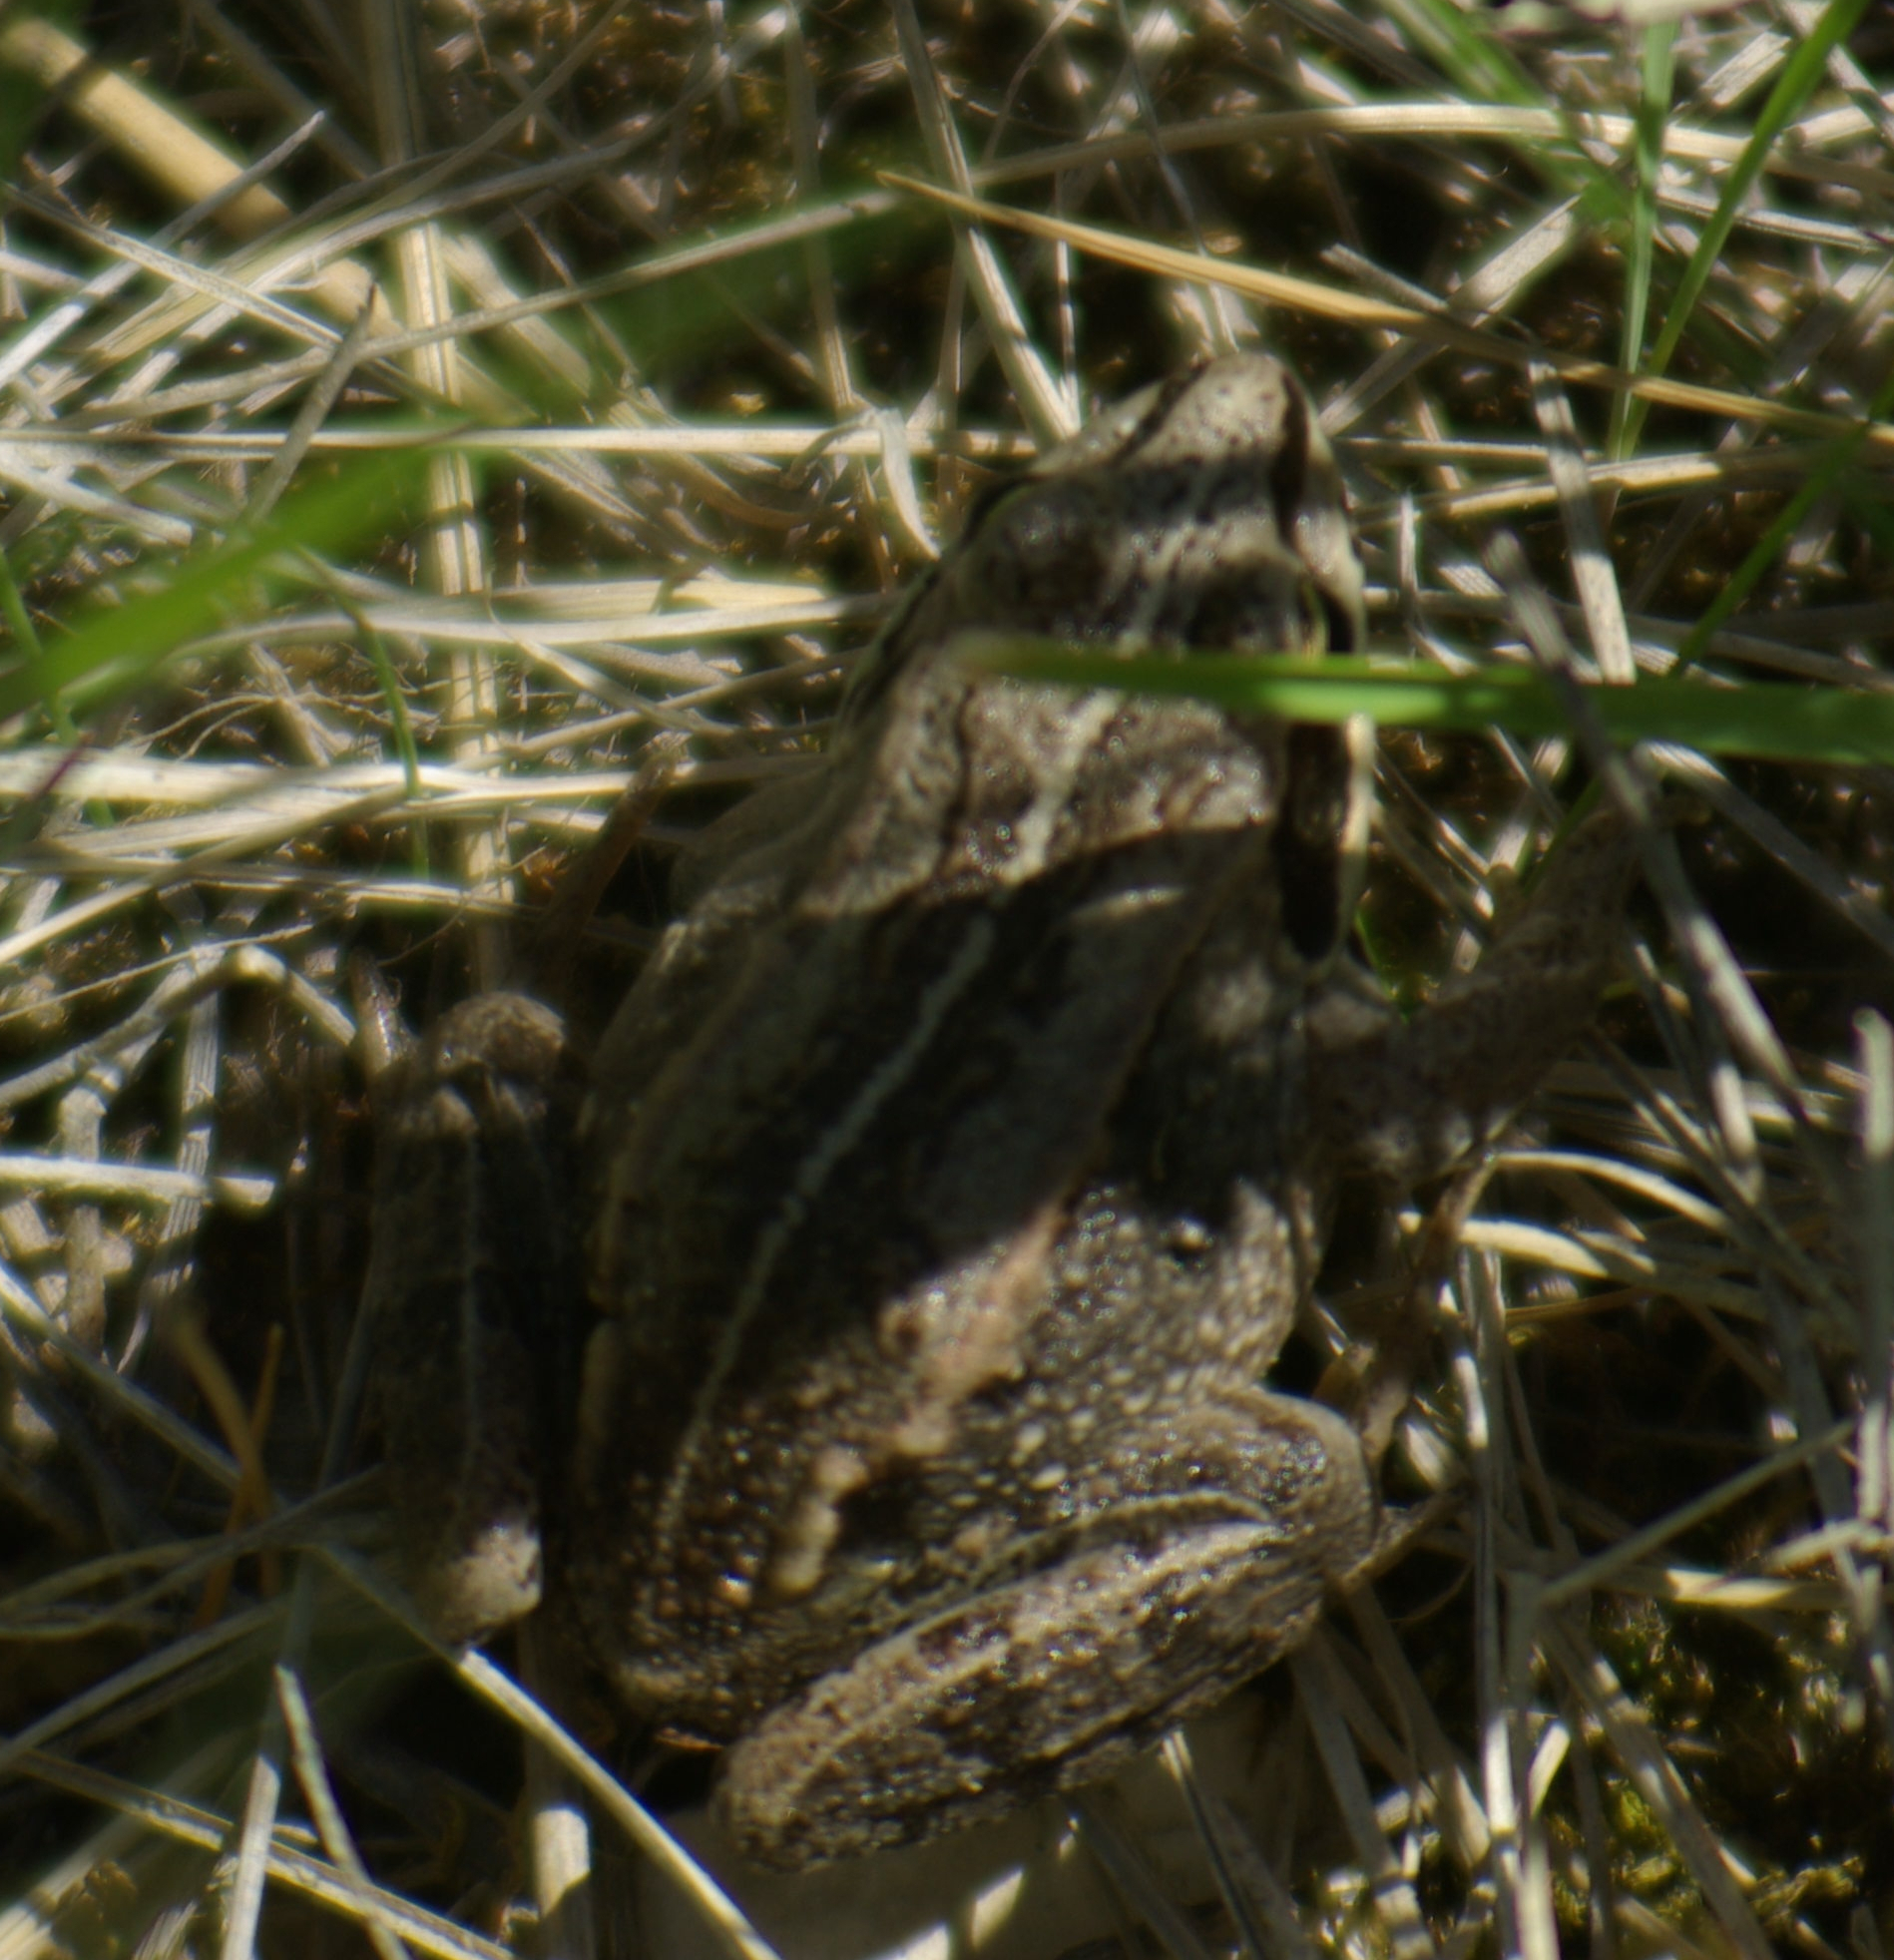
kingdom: Animalia
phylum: Chordata
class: Amphibia
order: Anura
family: Ranidae
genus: Lithobates
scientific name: Lithobates sylvaticus
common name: Wood frog
